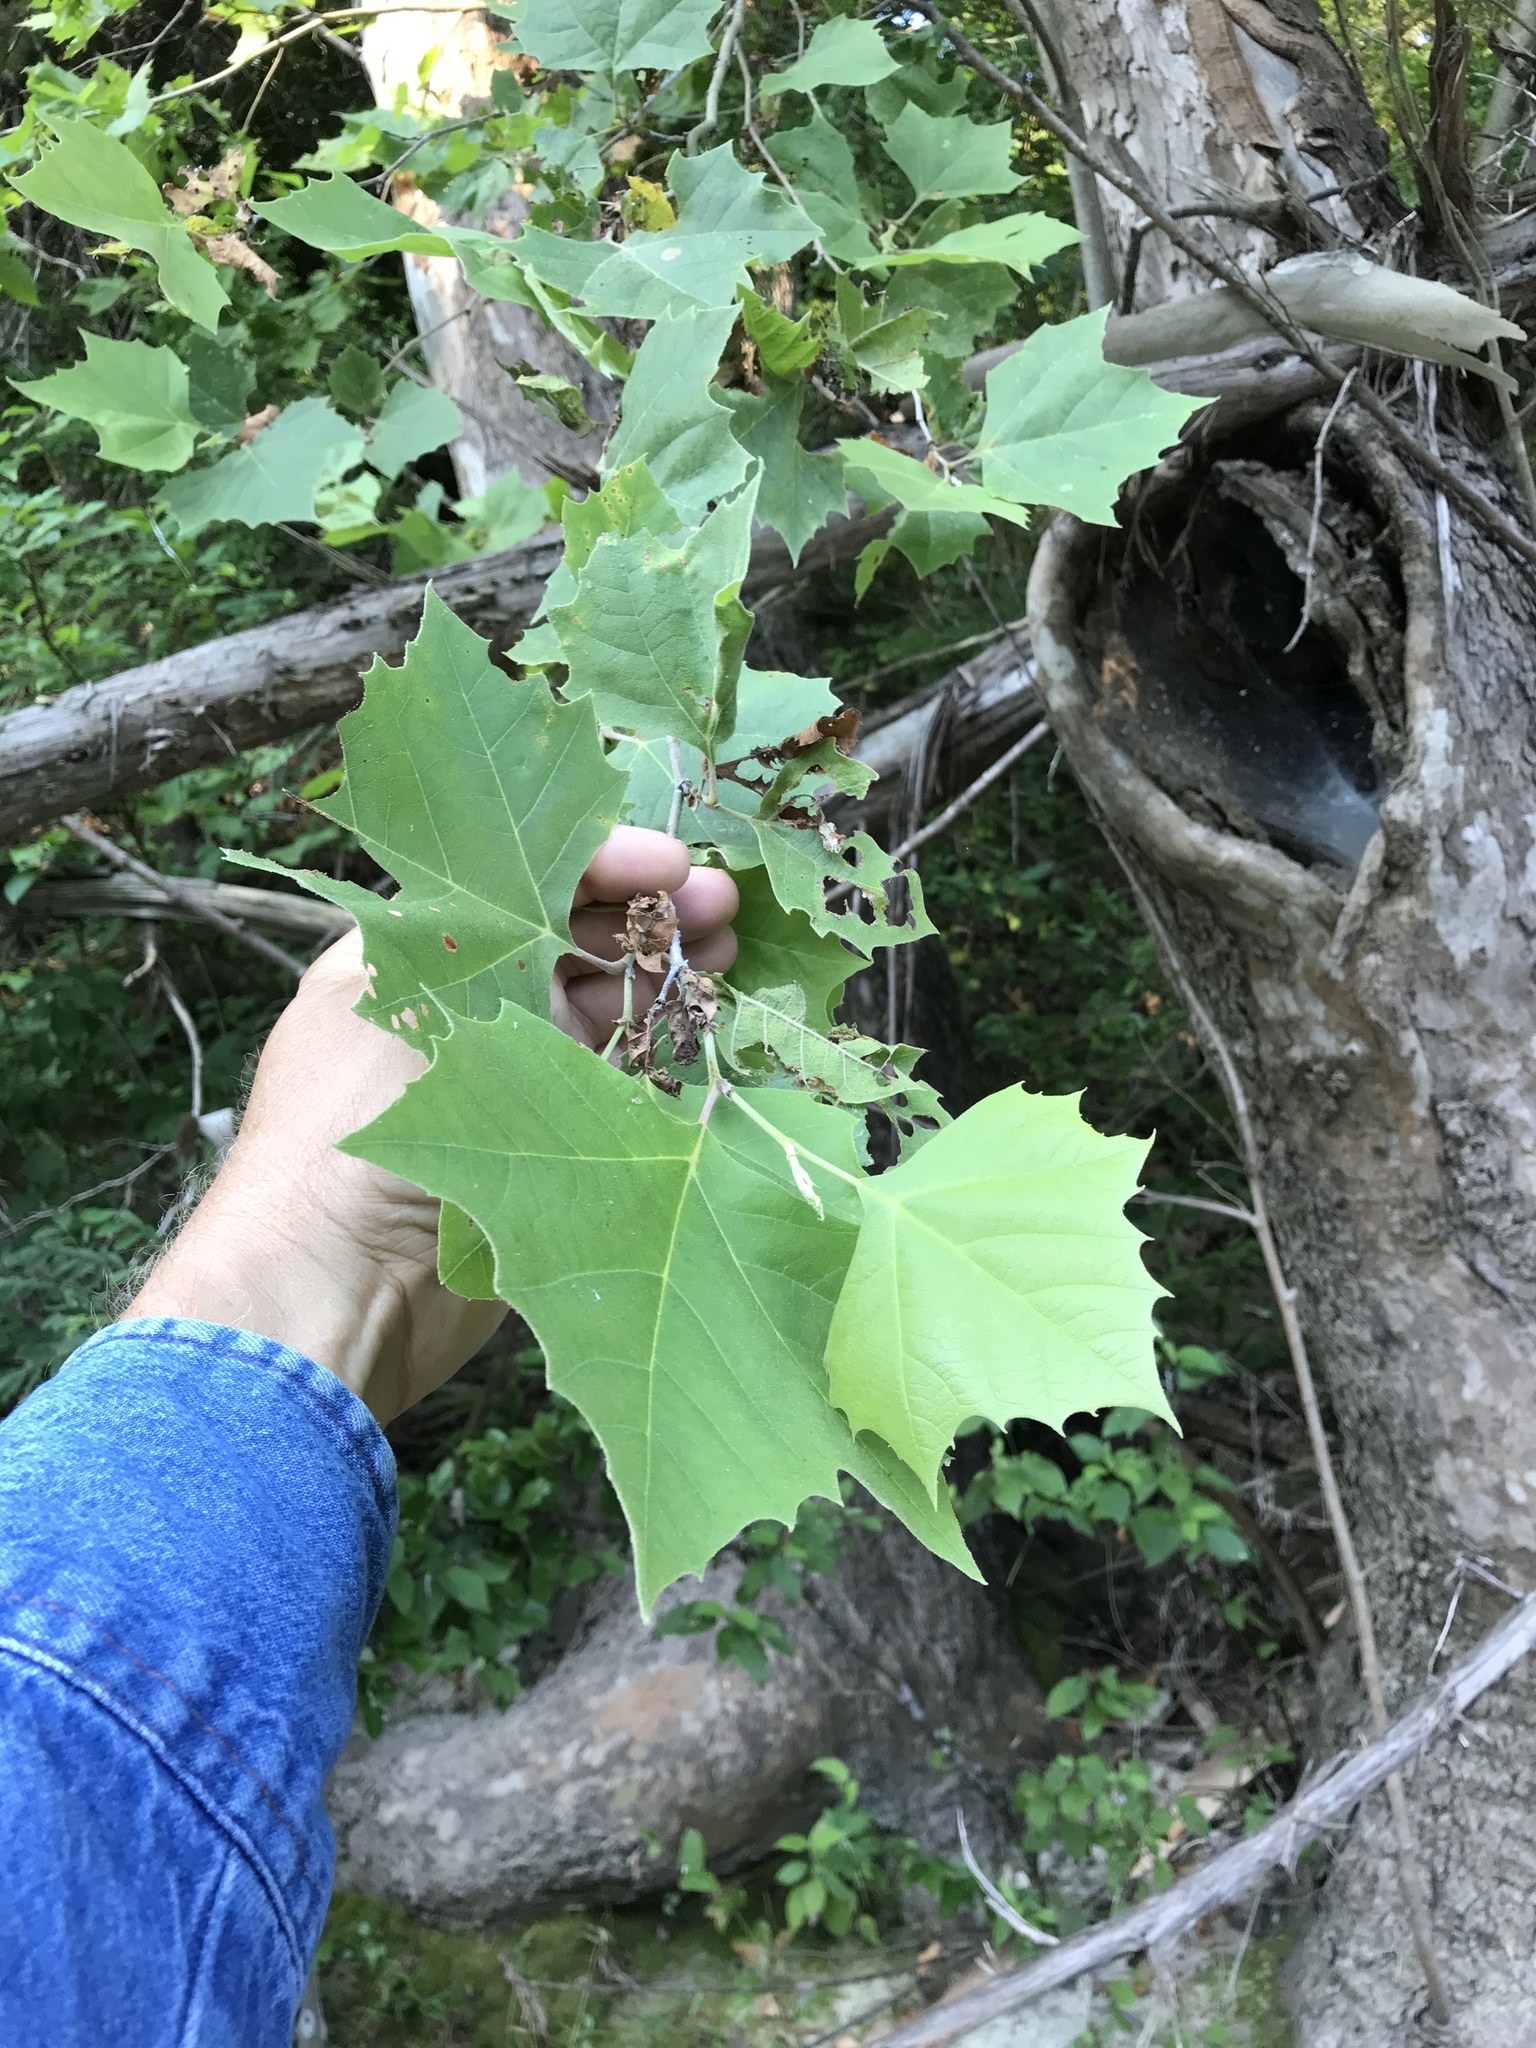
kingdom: Plantae
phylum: Tracheophyta
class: Magnoliopsida
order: Proteales
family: Platanaceae
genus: Platanus
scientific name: Platanus occidentalis
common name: American sycamore
